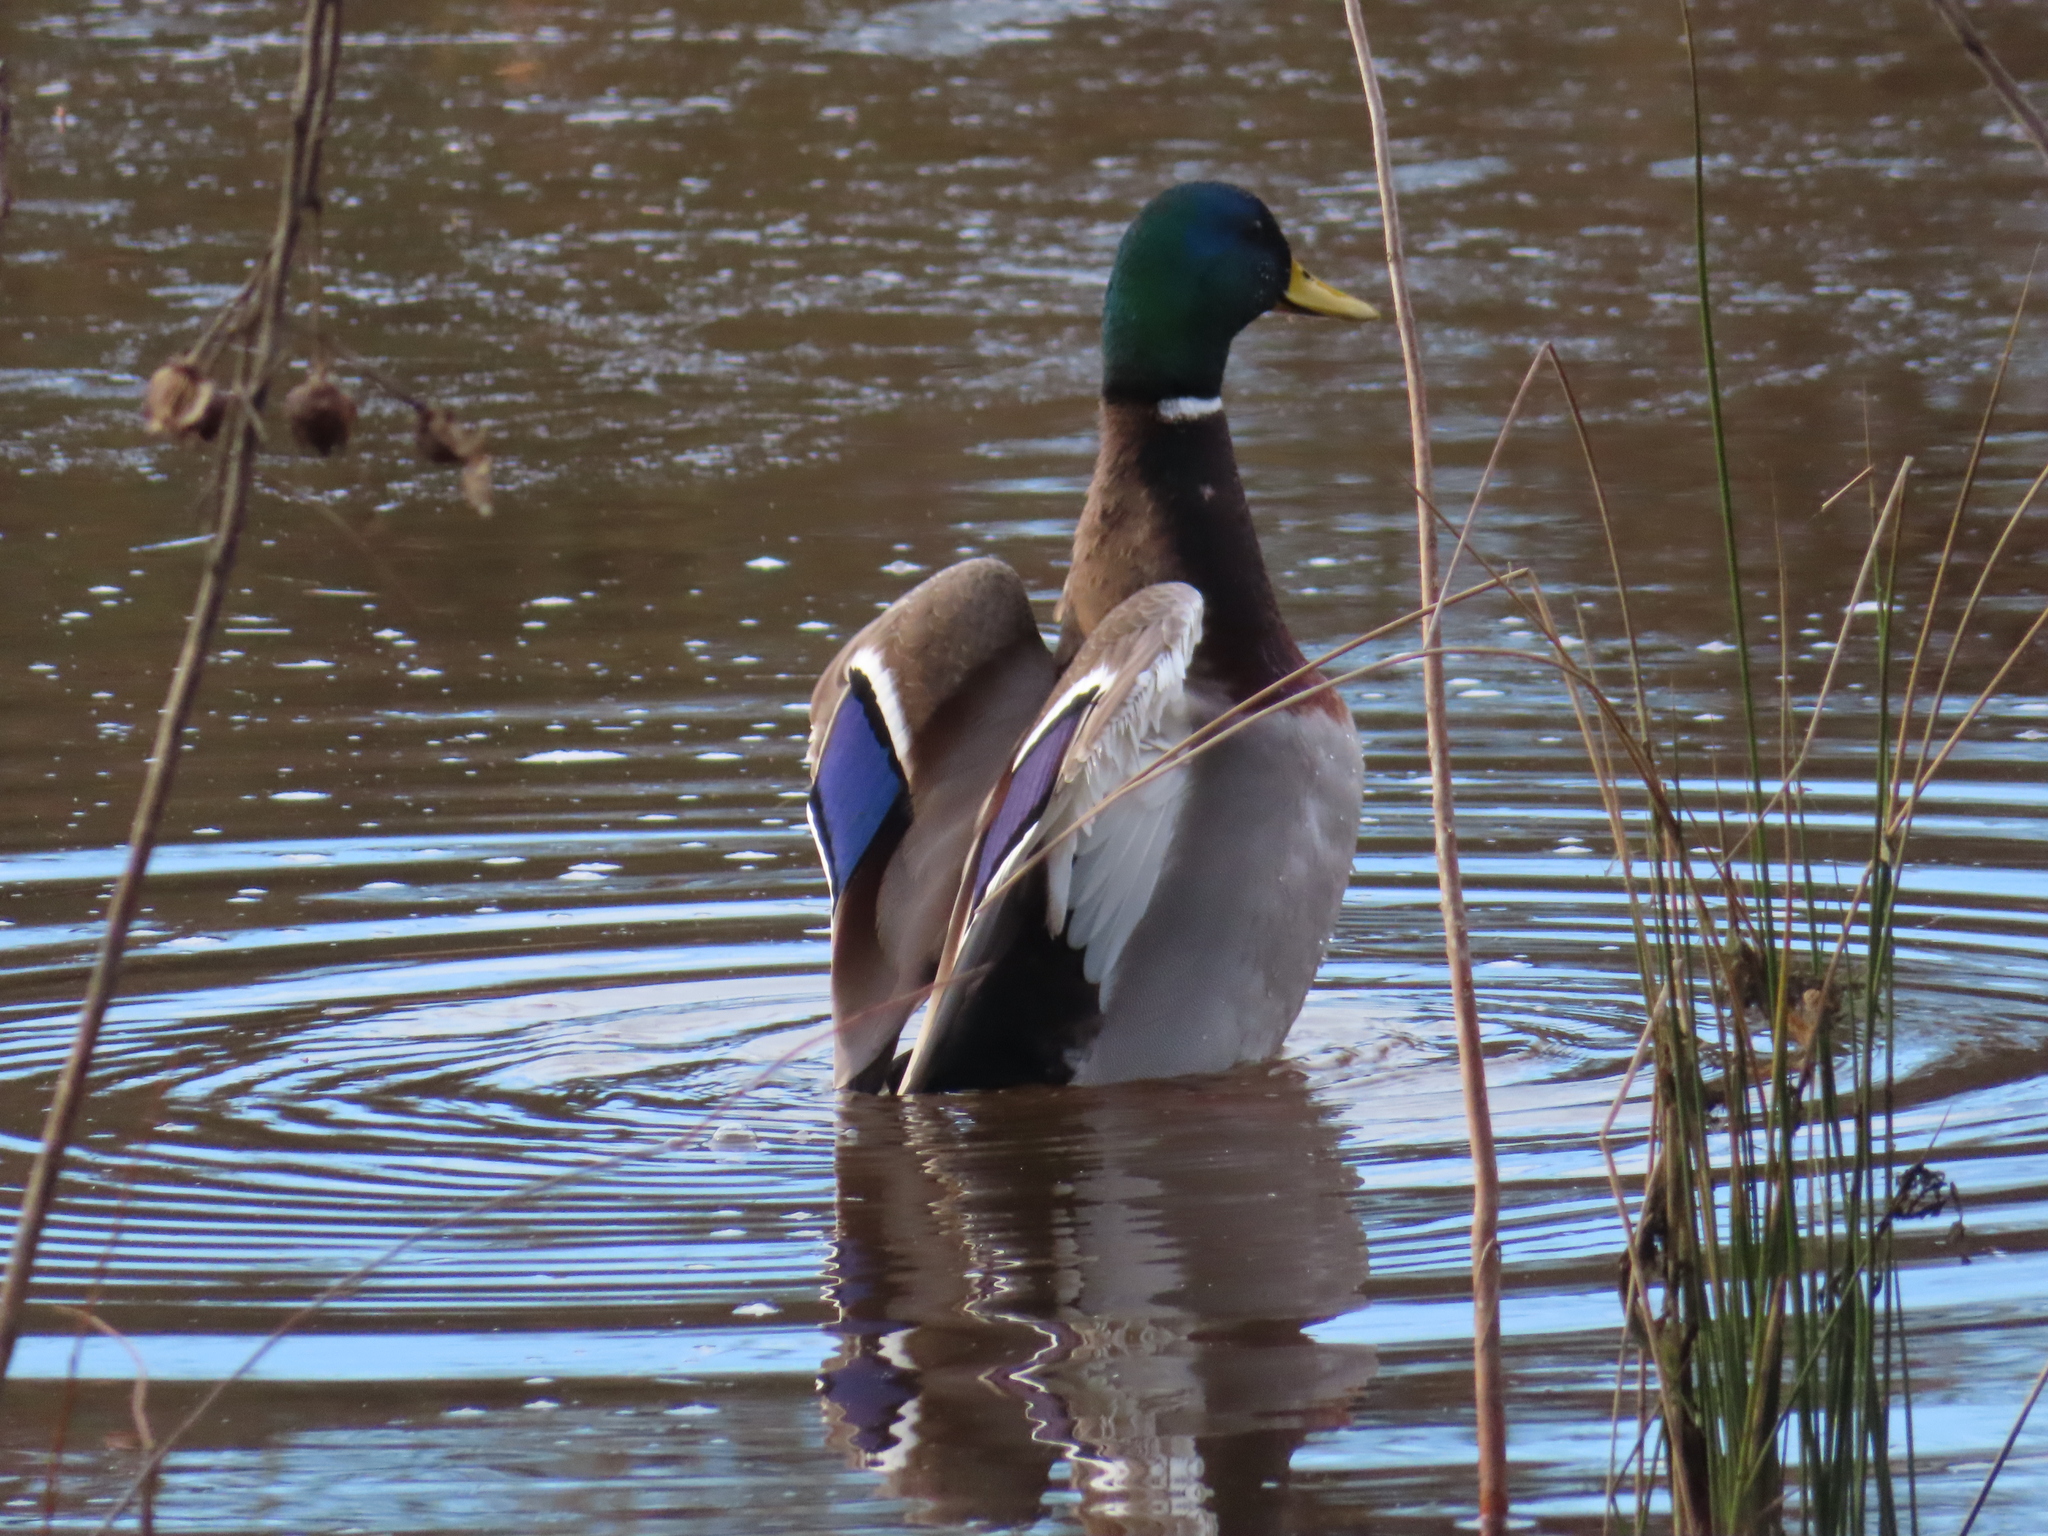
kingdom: Animalia
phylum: Chordata
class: Aves
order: Anseriformes
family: Anatidae
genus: Anas
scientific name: Anas platyrhynchos
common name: Mallard
